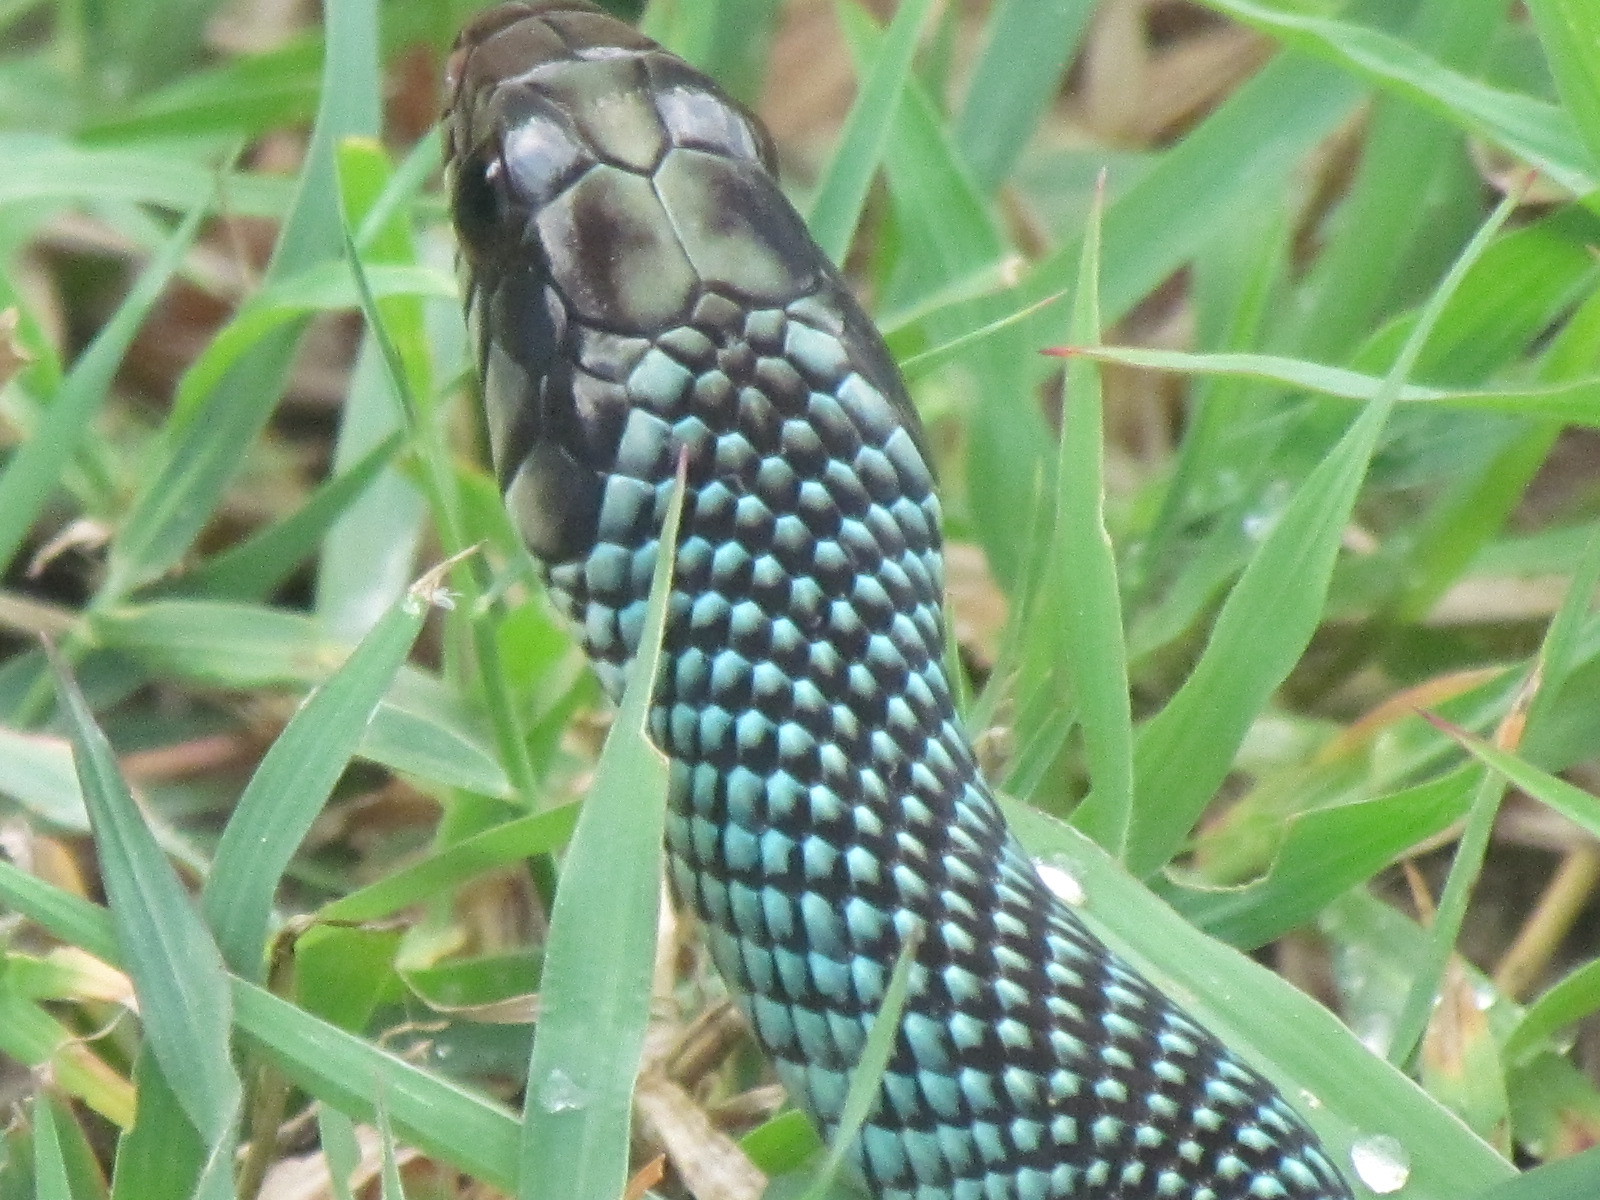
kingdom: Animalia
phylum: Chordata
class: Squamata
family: Colubridae
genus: Drymobius
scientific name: Drymobius margaritiferus
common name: Central american speckled racer
